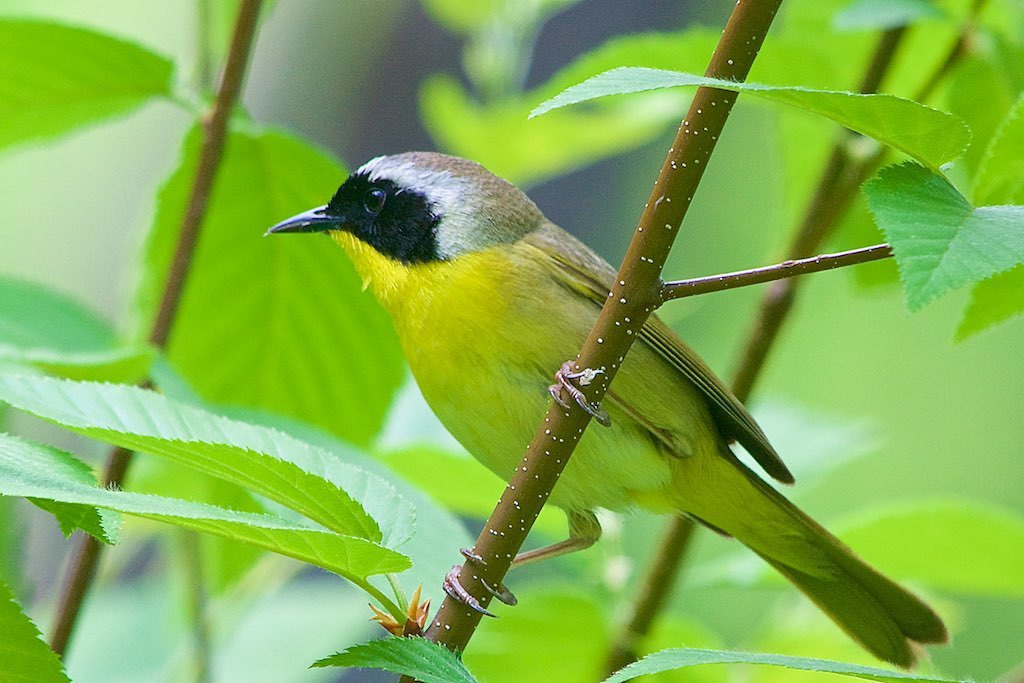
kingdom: Animalia
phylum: Chordata
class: Aves
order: Passeriformes
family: Parulidae
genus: Geothlypis
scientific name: Geothlypis trichas
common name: Common yellowthroat
